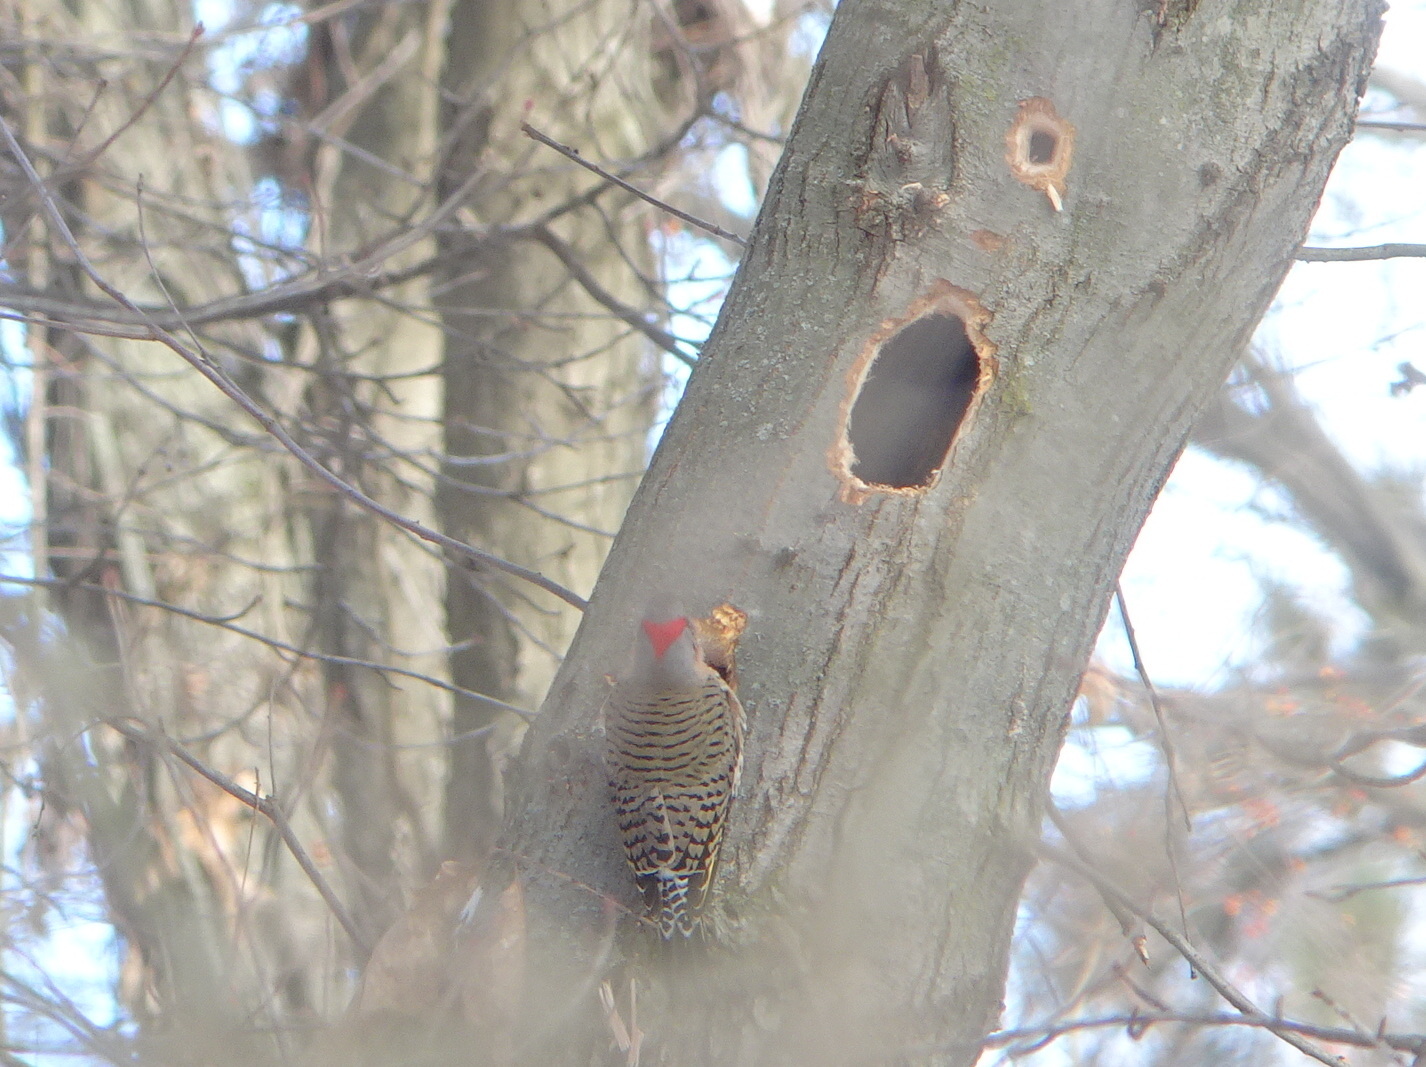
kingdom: Animalia
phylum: Chordata
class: Aves
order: Piciformes
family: Picidae
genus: Colaptes
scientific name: Colaptes auratus
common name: Northern flicker
